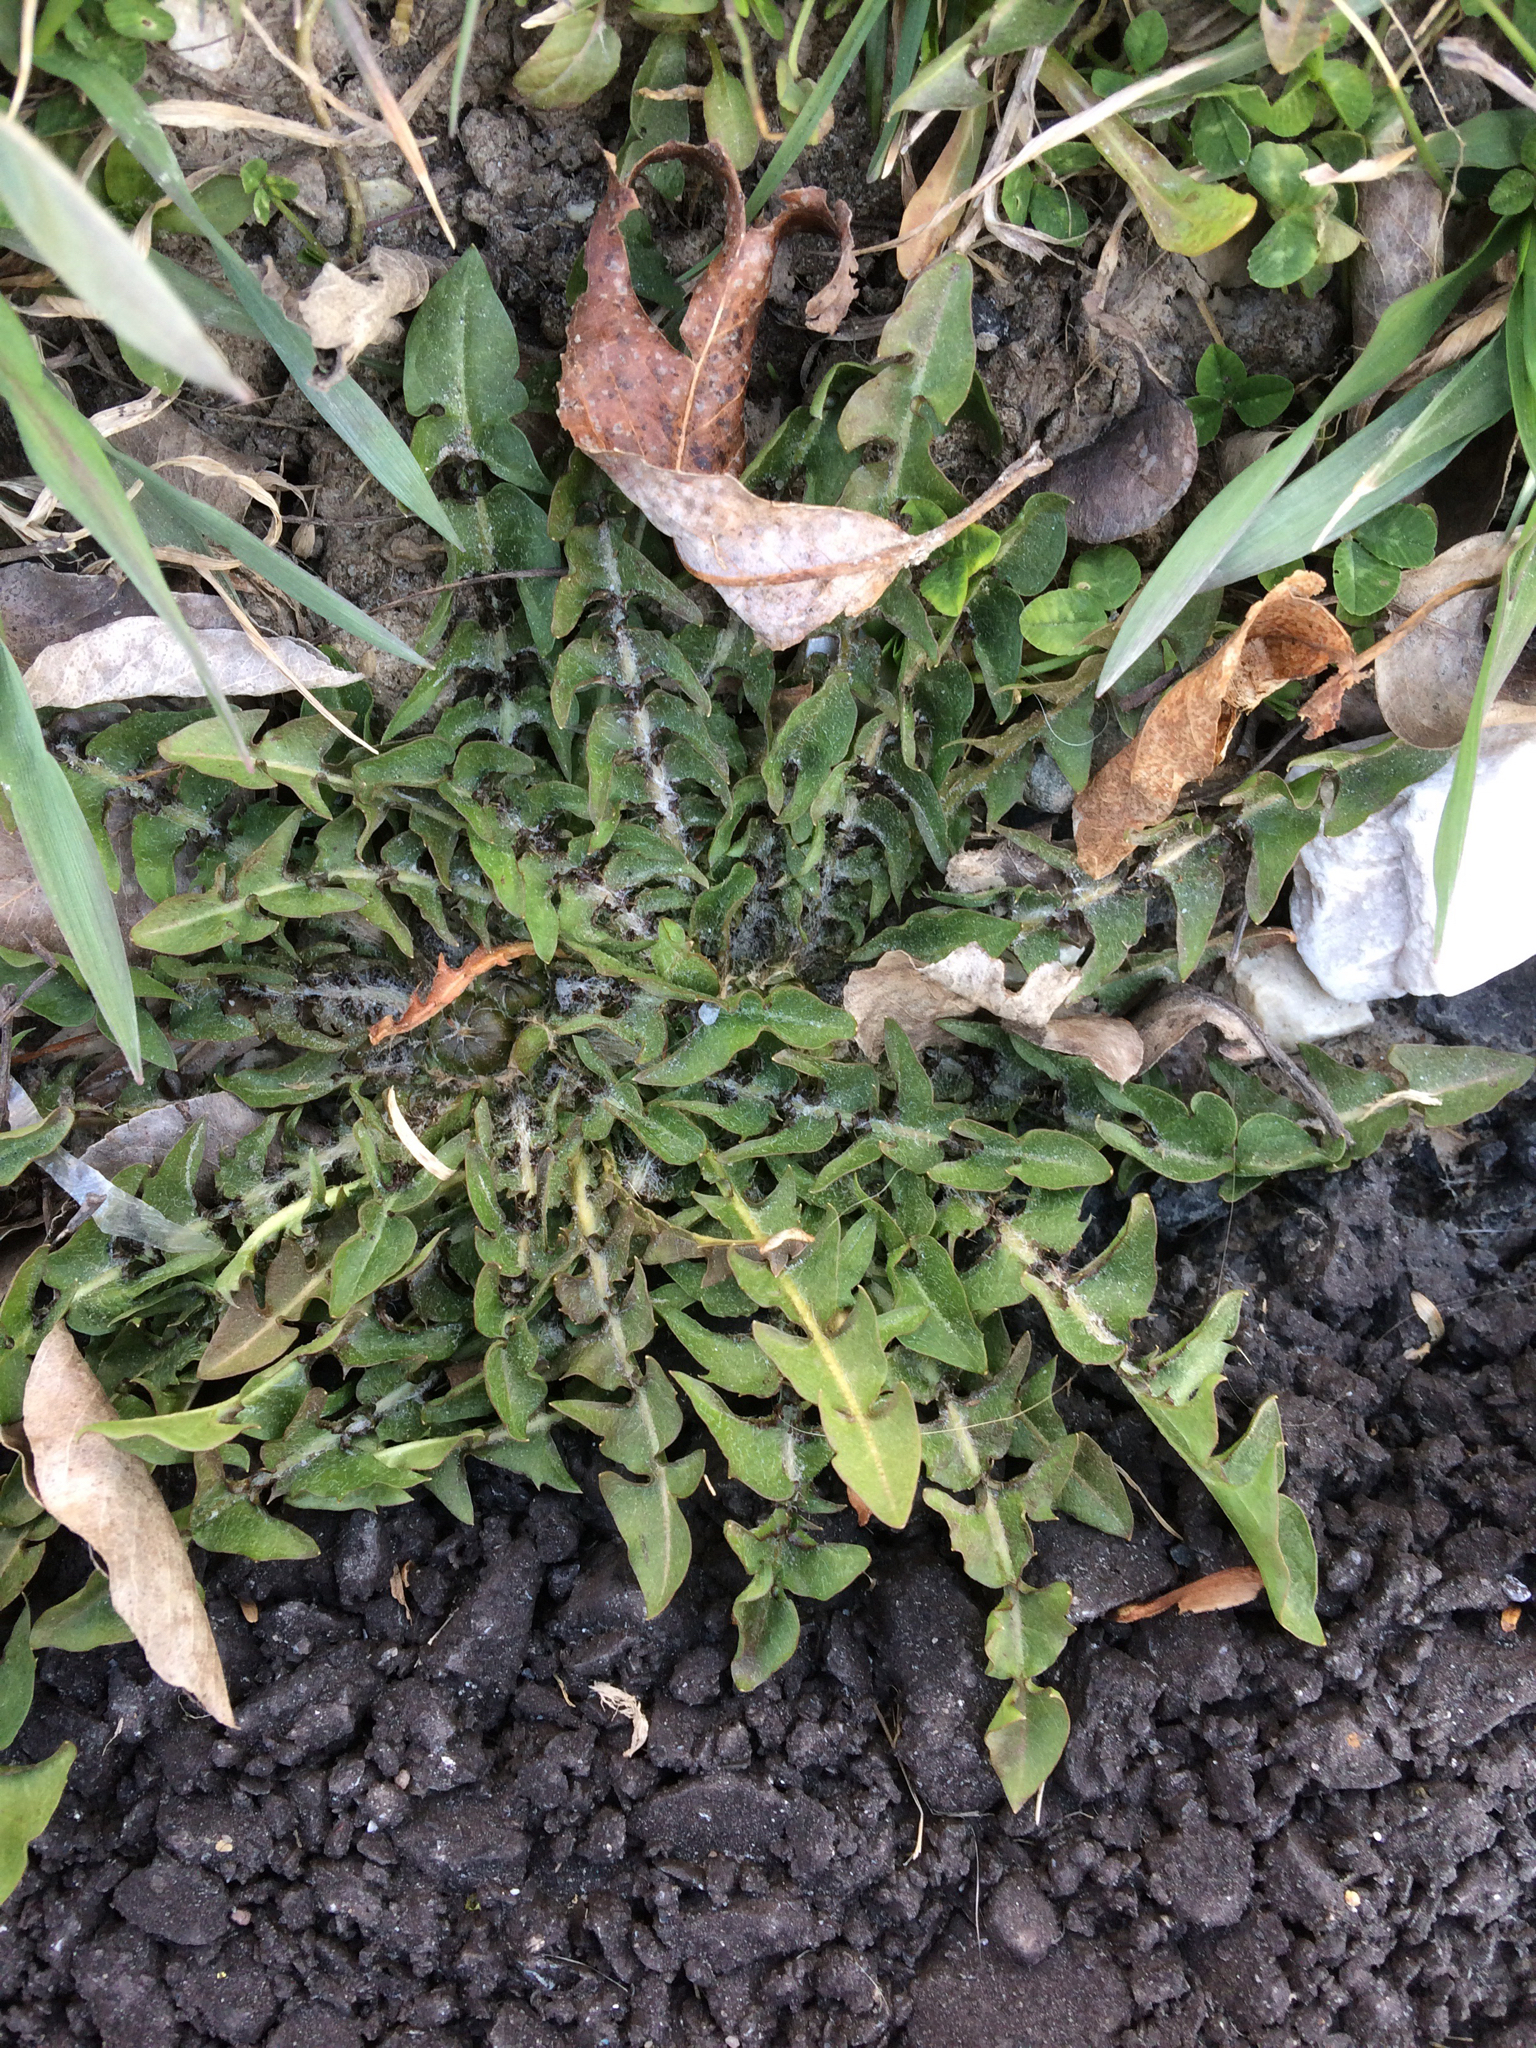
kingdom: Plantae
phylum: Tracheophyta
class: Magnoliopsida
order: Asterales
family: Asteraceae
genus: Taraxacum
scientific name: Taraxacum
